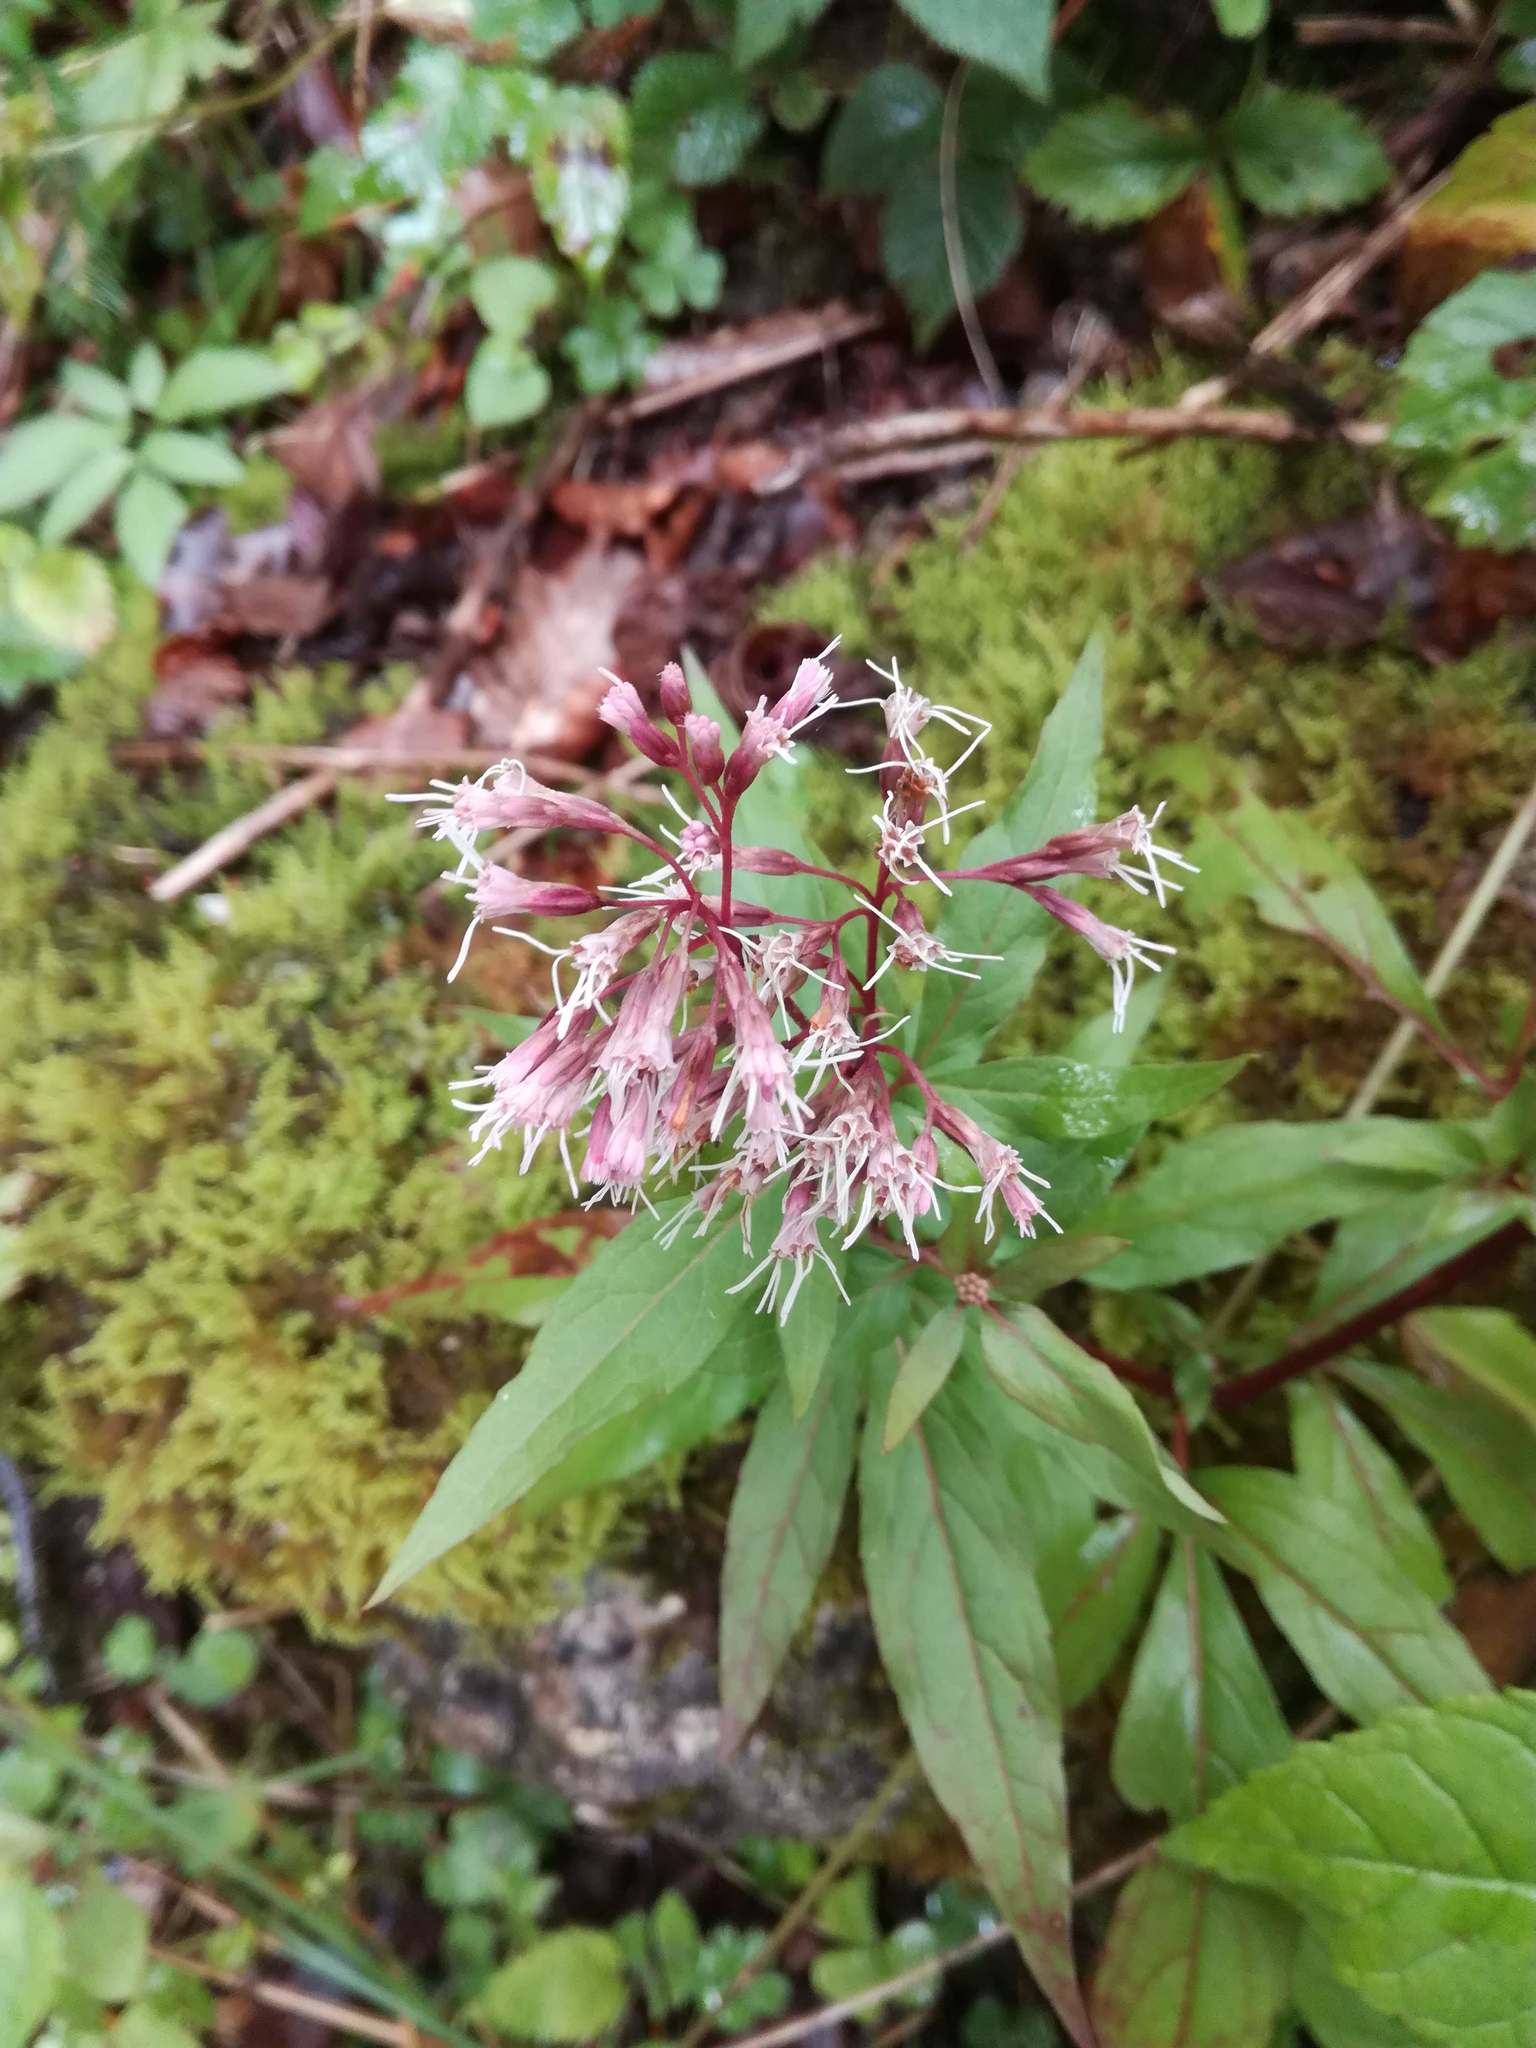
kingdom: Plantae
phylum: Tracheophyta
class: Magnoliopsida
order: Asterales
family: Asteraceae
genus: Eupatorium
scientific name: Eupatorium cannabinum
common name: Hemp-agrimony
